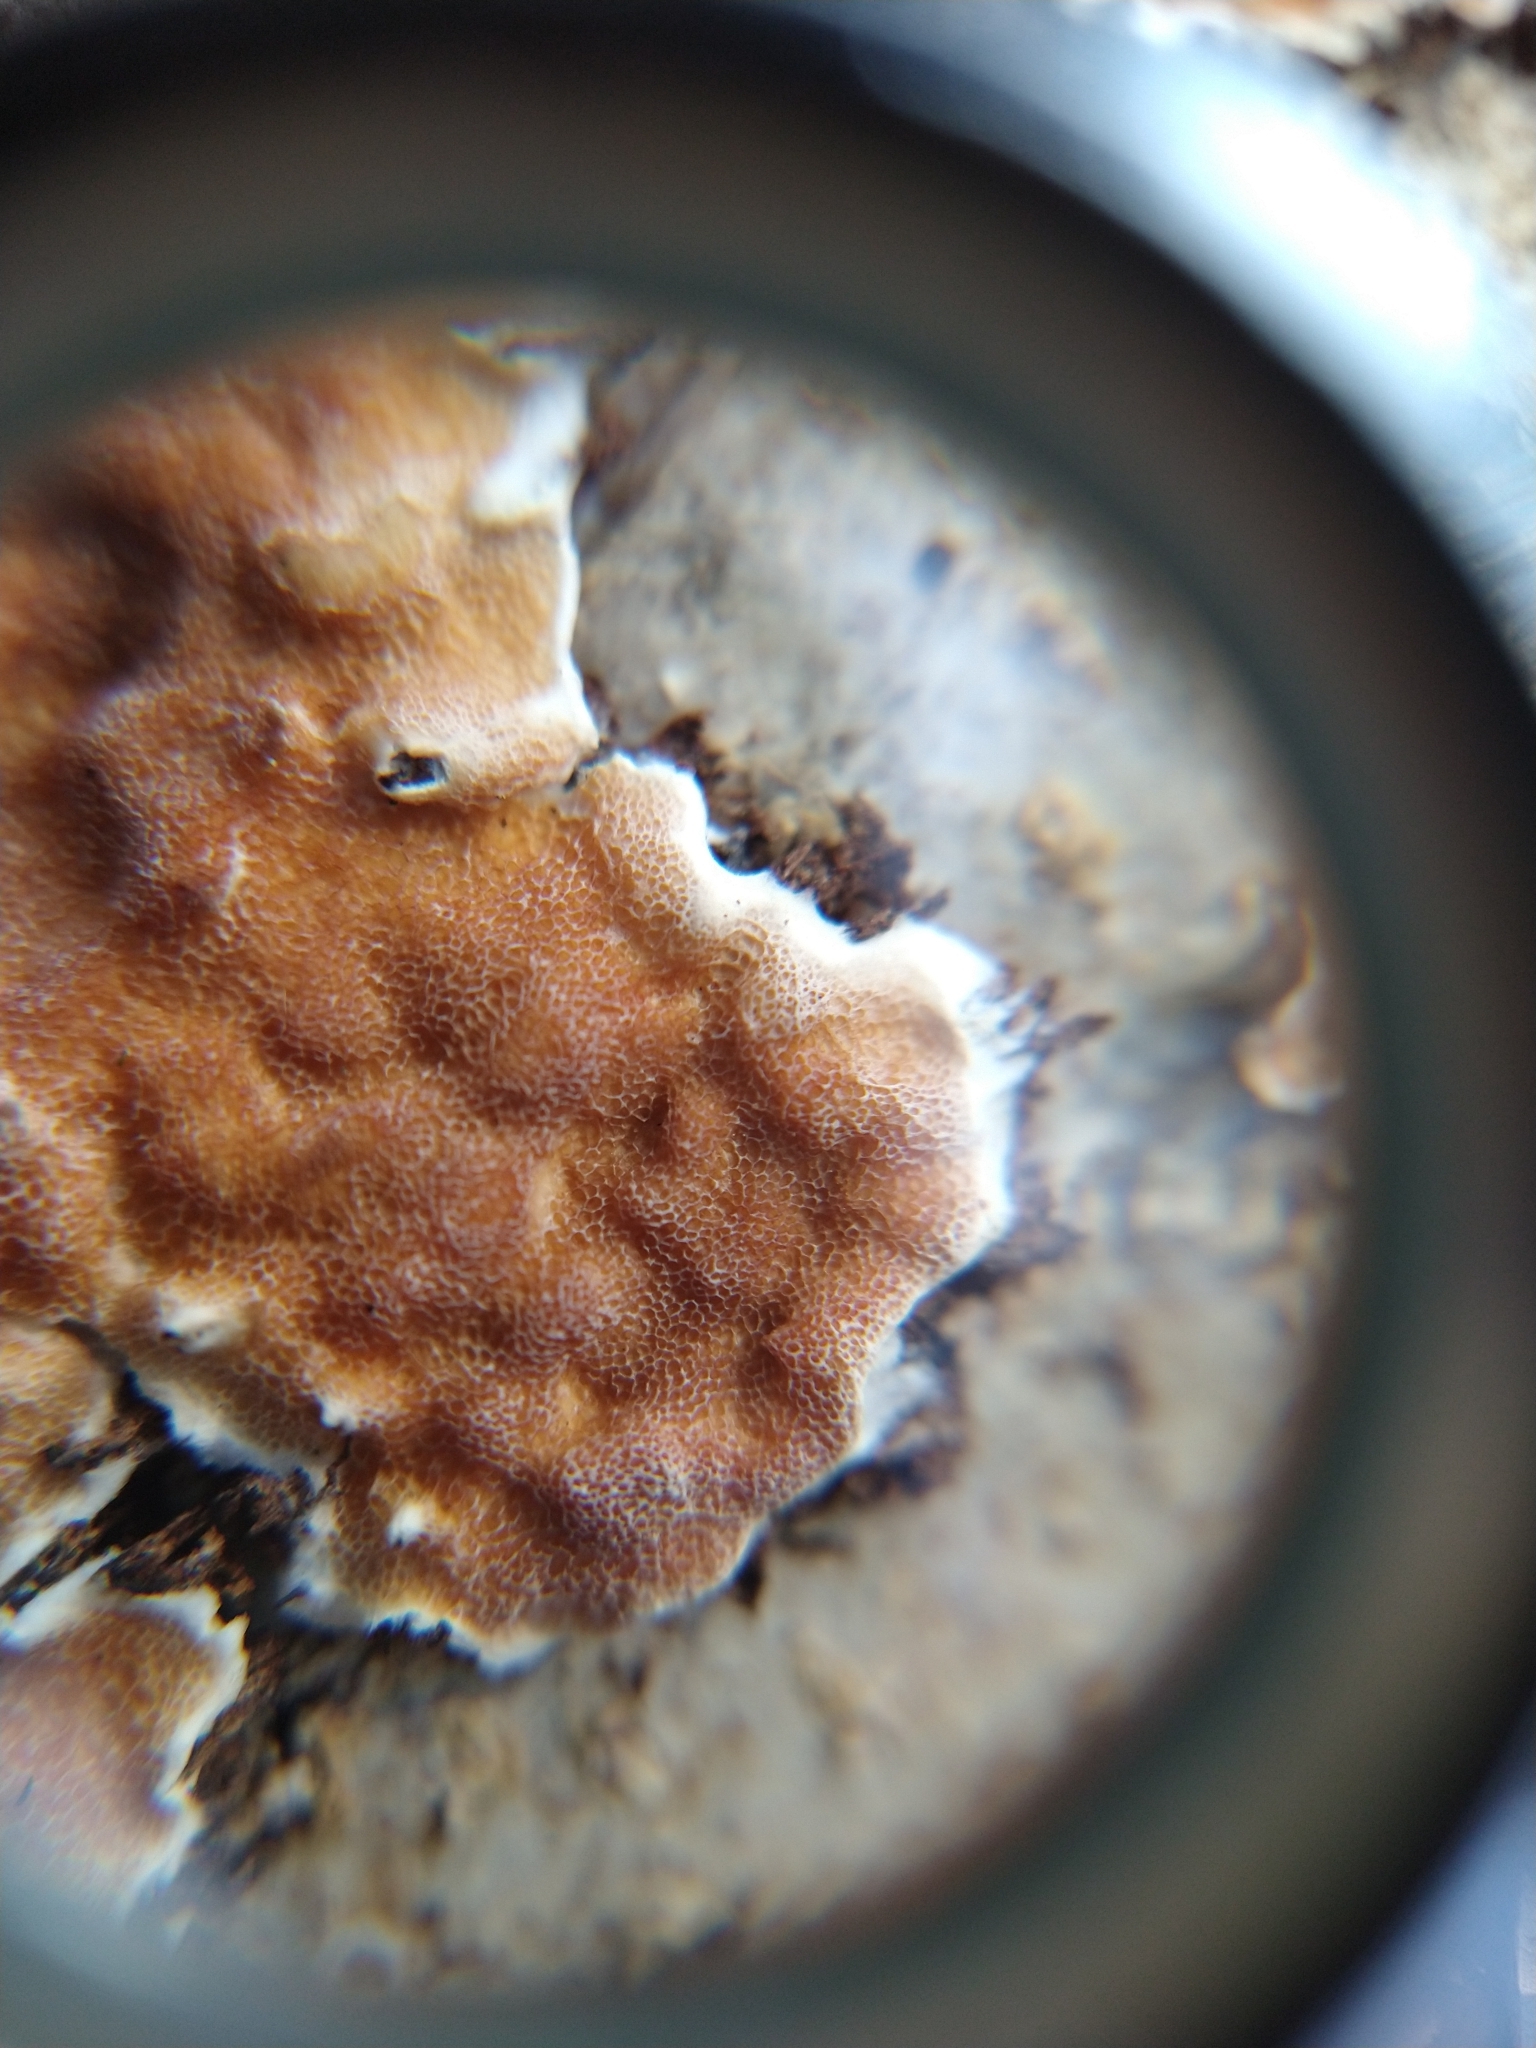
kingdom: Fungi
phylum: Basidiomycota
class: Agaricomycetes
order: Polyporales
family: Irpicaceae
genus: Vitreoporus
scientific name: Vitreoporus dichrous
